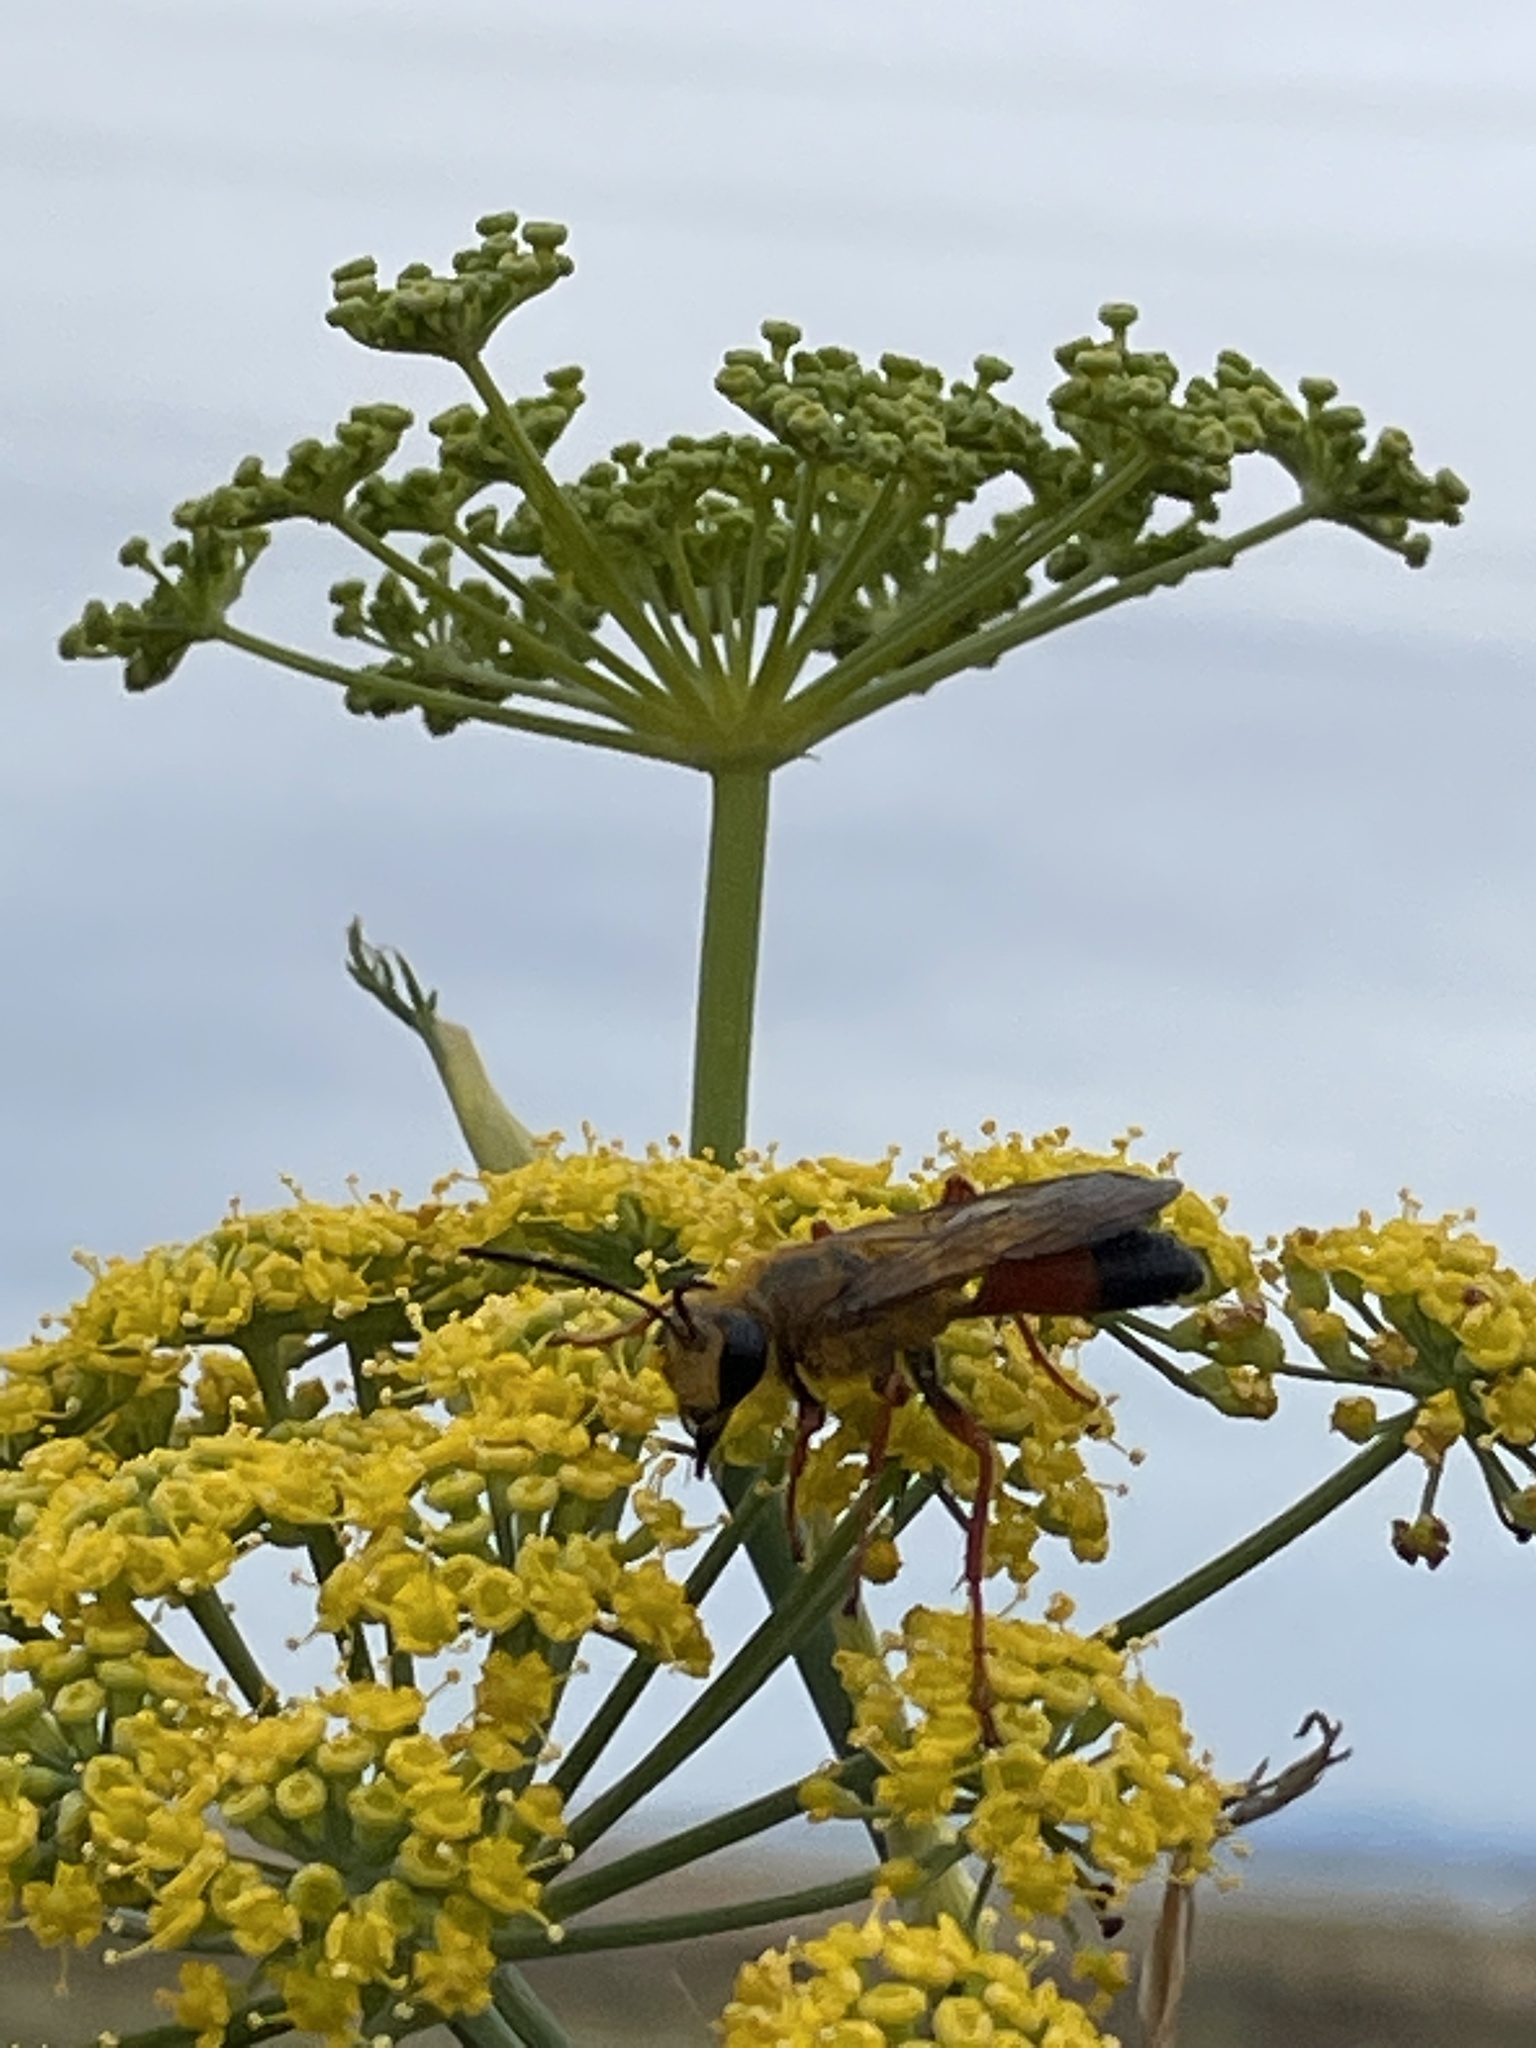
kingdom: Animalia
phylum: Arthropoda
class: Insecta
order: Hymenoptera
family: Sphecidae
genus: Sphex
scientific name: Sphex ichneumoneus
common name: Great golden digger wasp
